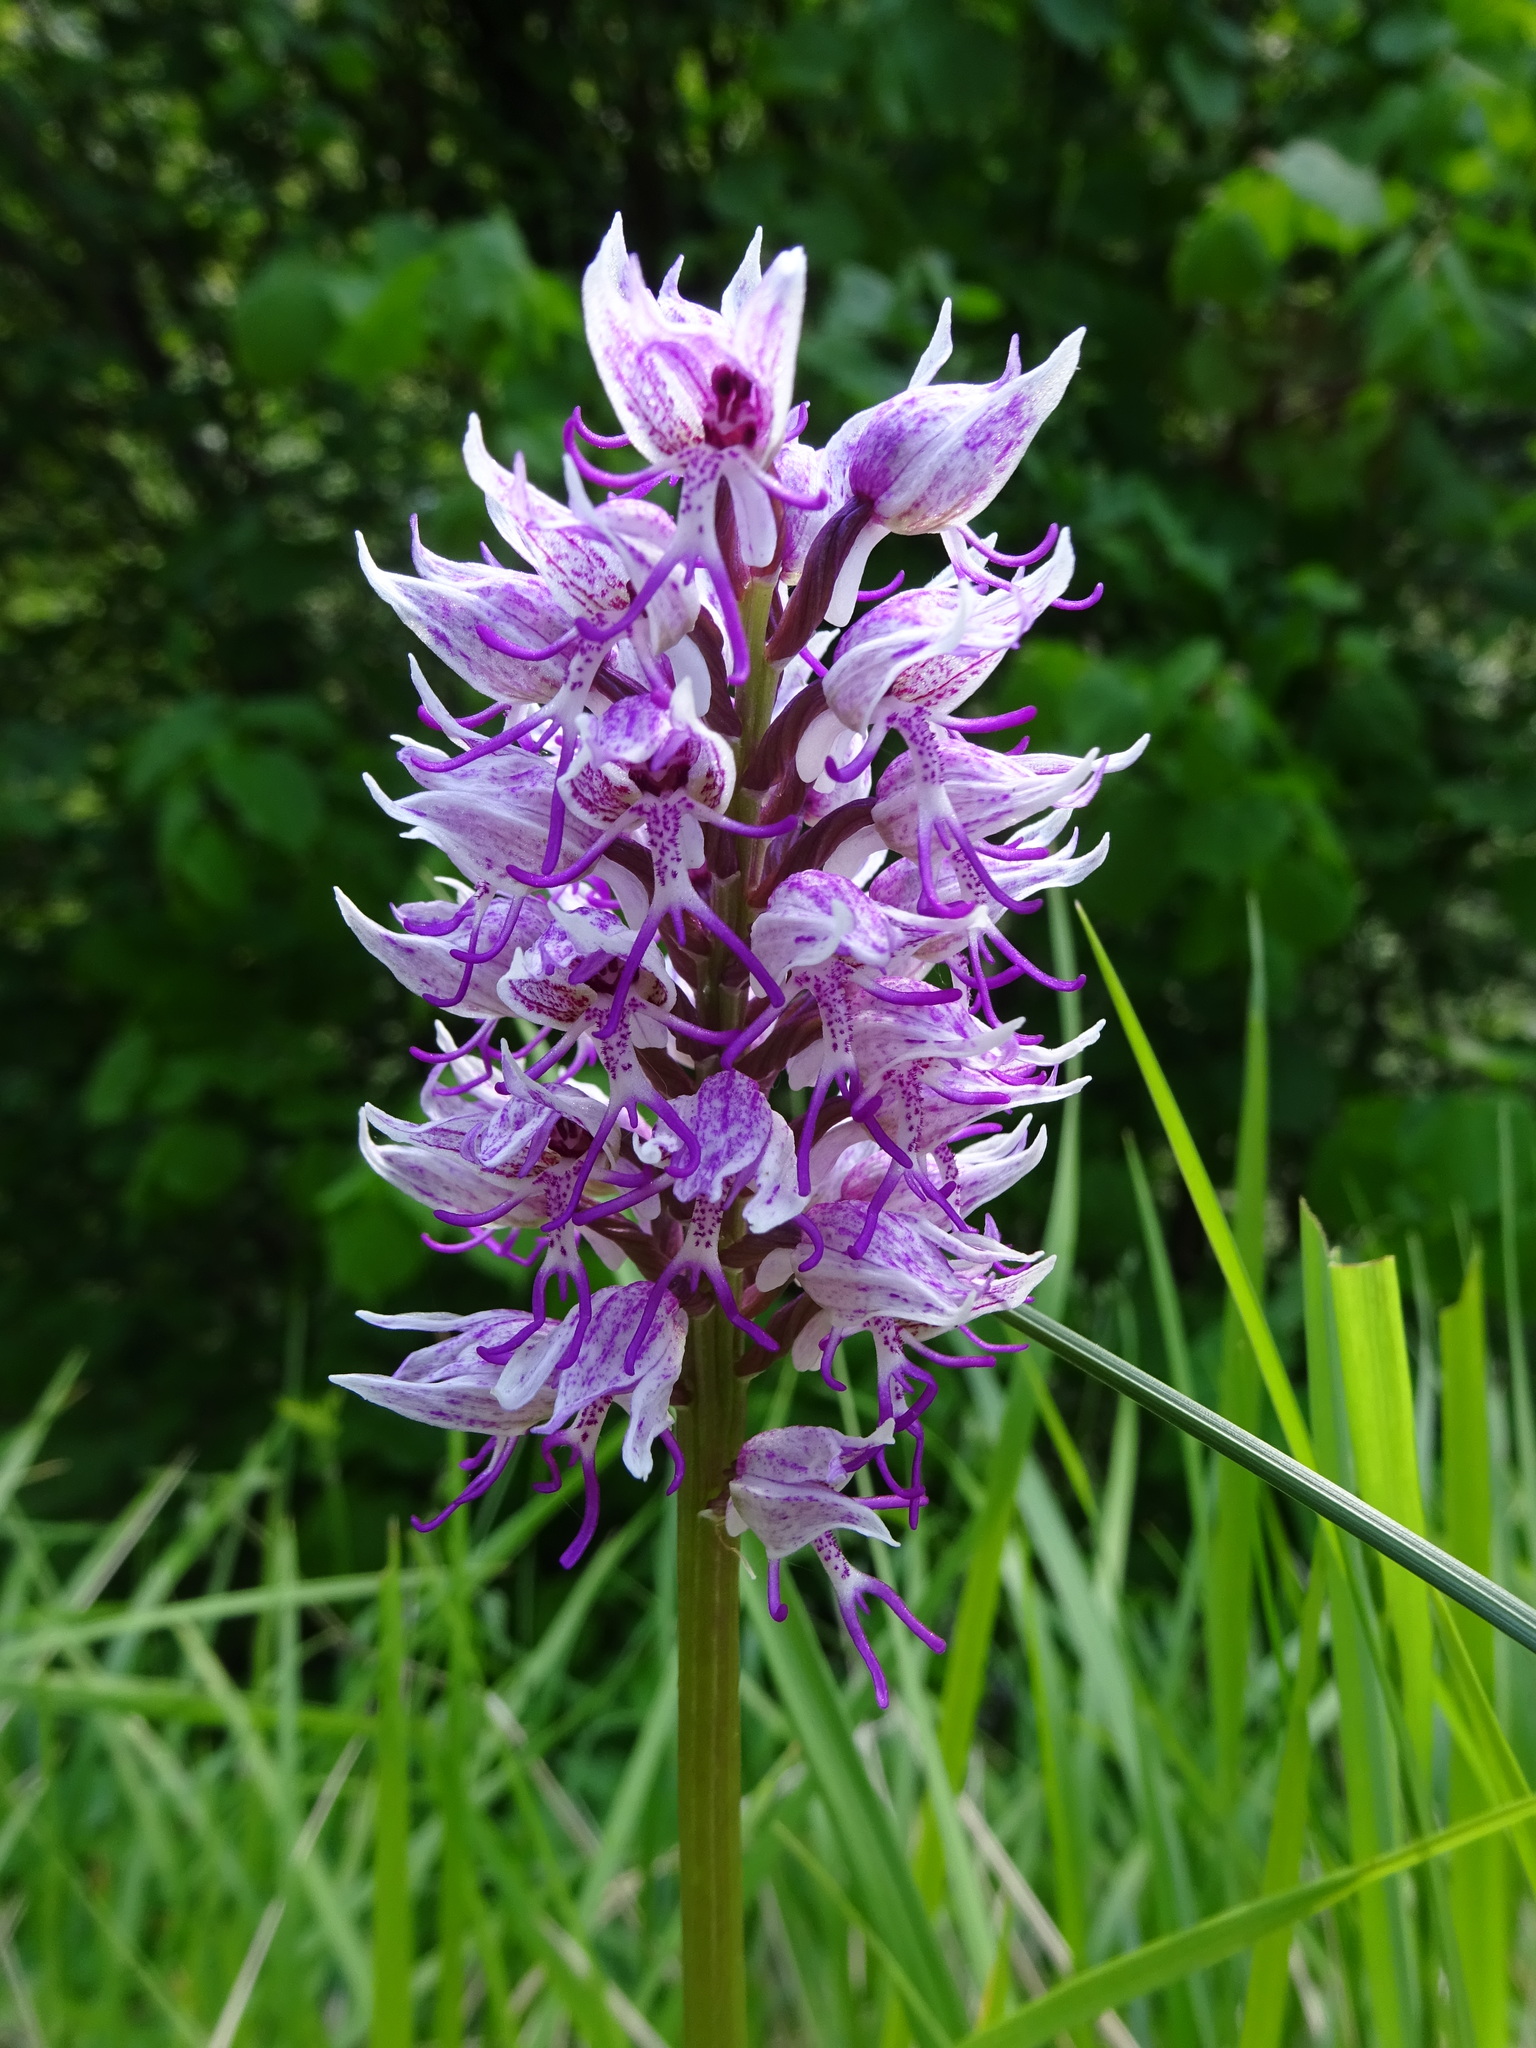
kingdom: Plantae
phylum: Tracheophyta
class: Liliopsida
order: Asparagales
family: Orchidaceae
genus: Orchis
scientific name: Orchis simia
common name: Monkey orchid
